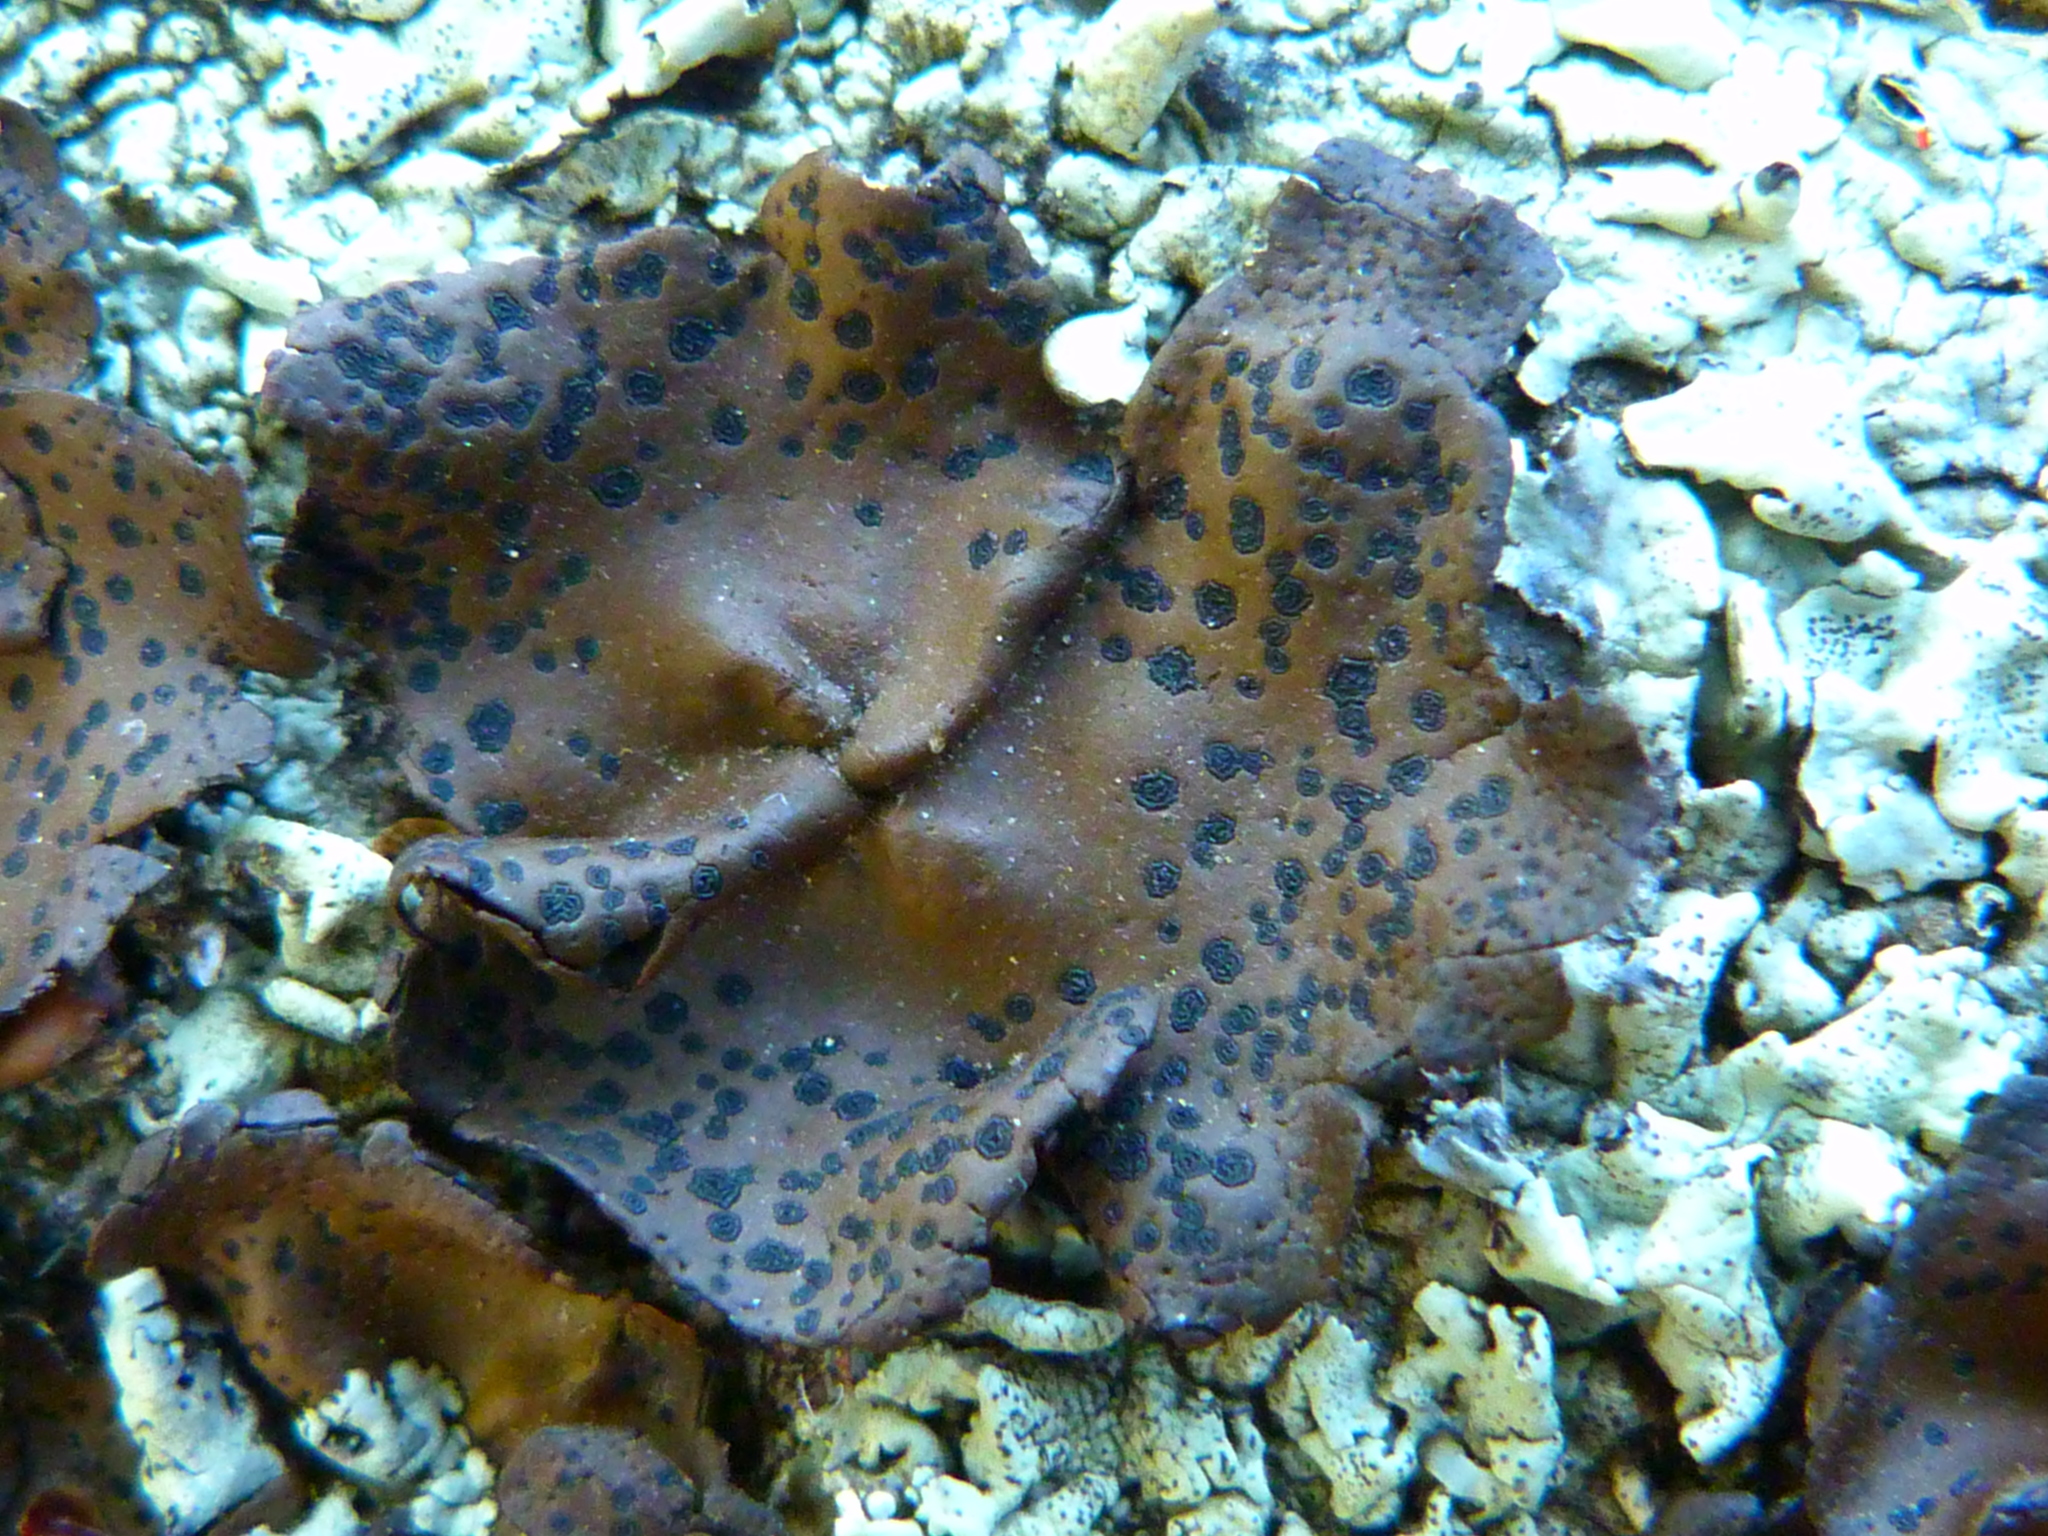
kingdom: Fungi
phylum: Ascomycota
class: Lecanoromycetes
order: Umbilicariales
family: Umbilicariaceae
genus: Umbilicaria
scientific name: Umbilicaria phaea
